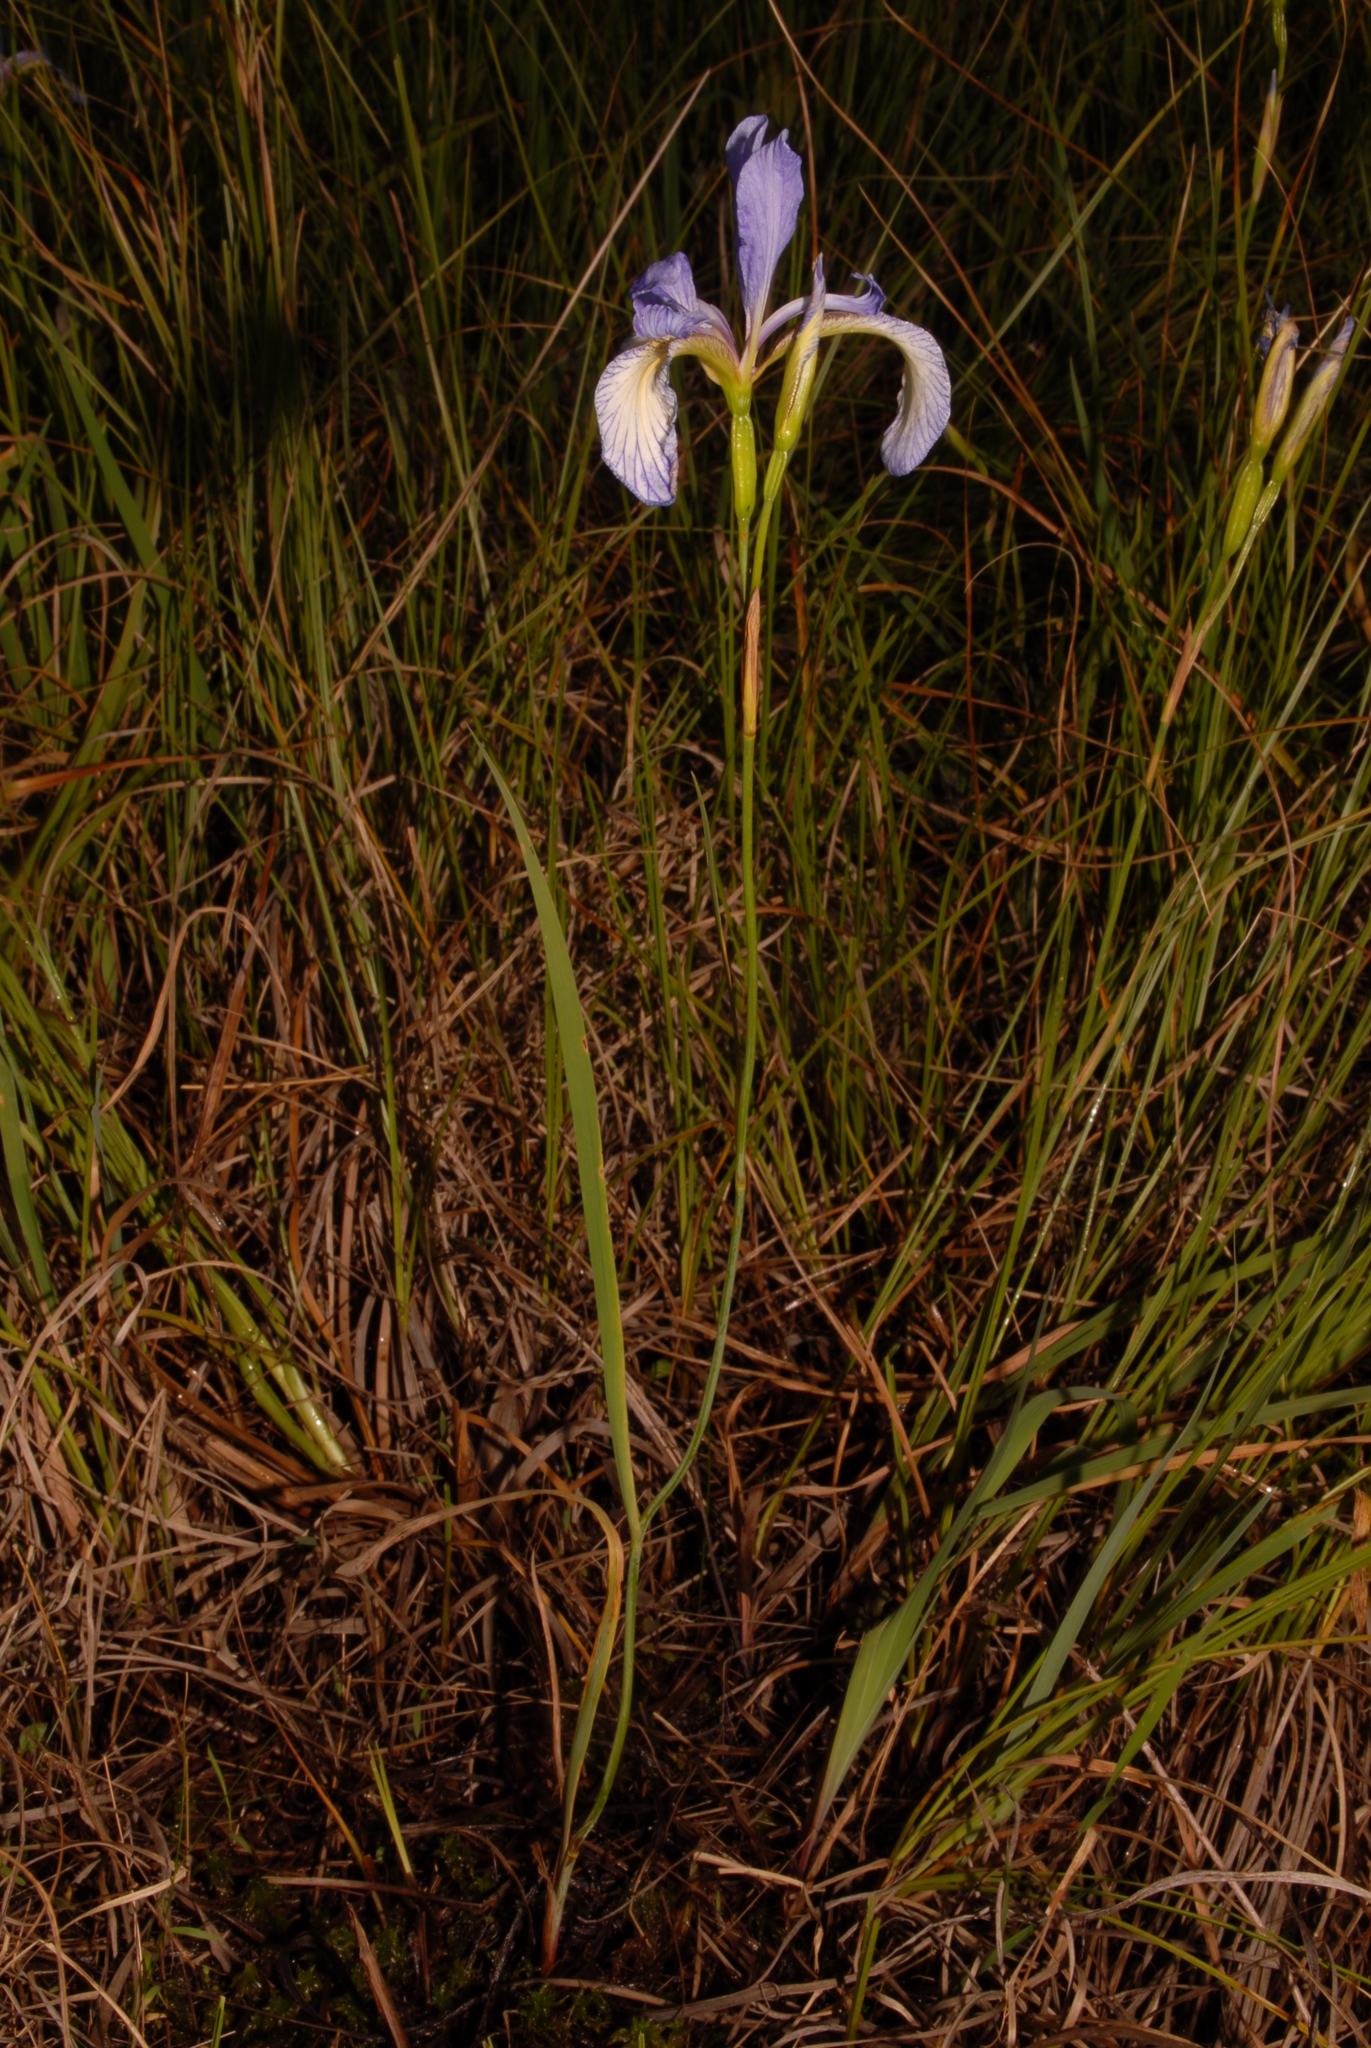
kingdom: Plantae
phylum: Tracheophyta
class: Liliopsida
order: Asparagales
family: Iridaceae
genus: Iris
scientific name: Iris prismatica
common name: Slender blue flag
